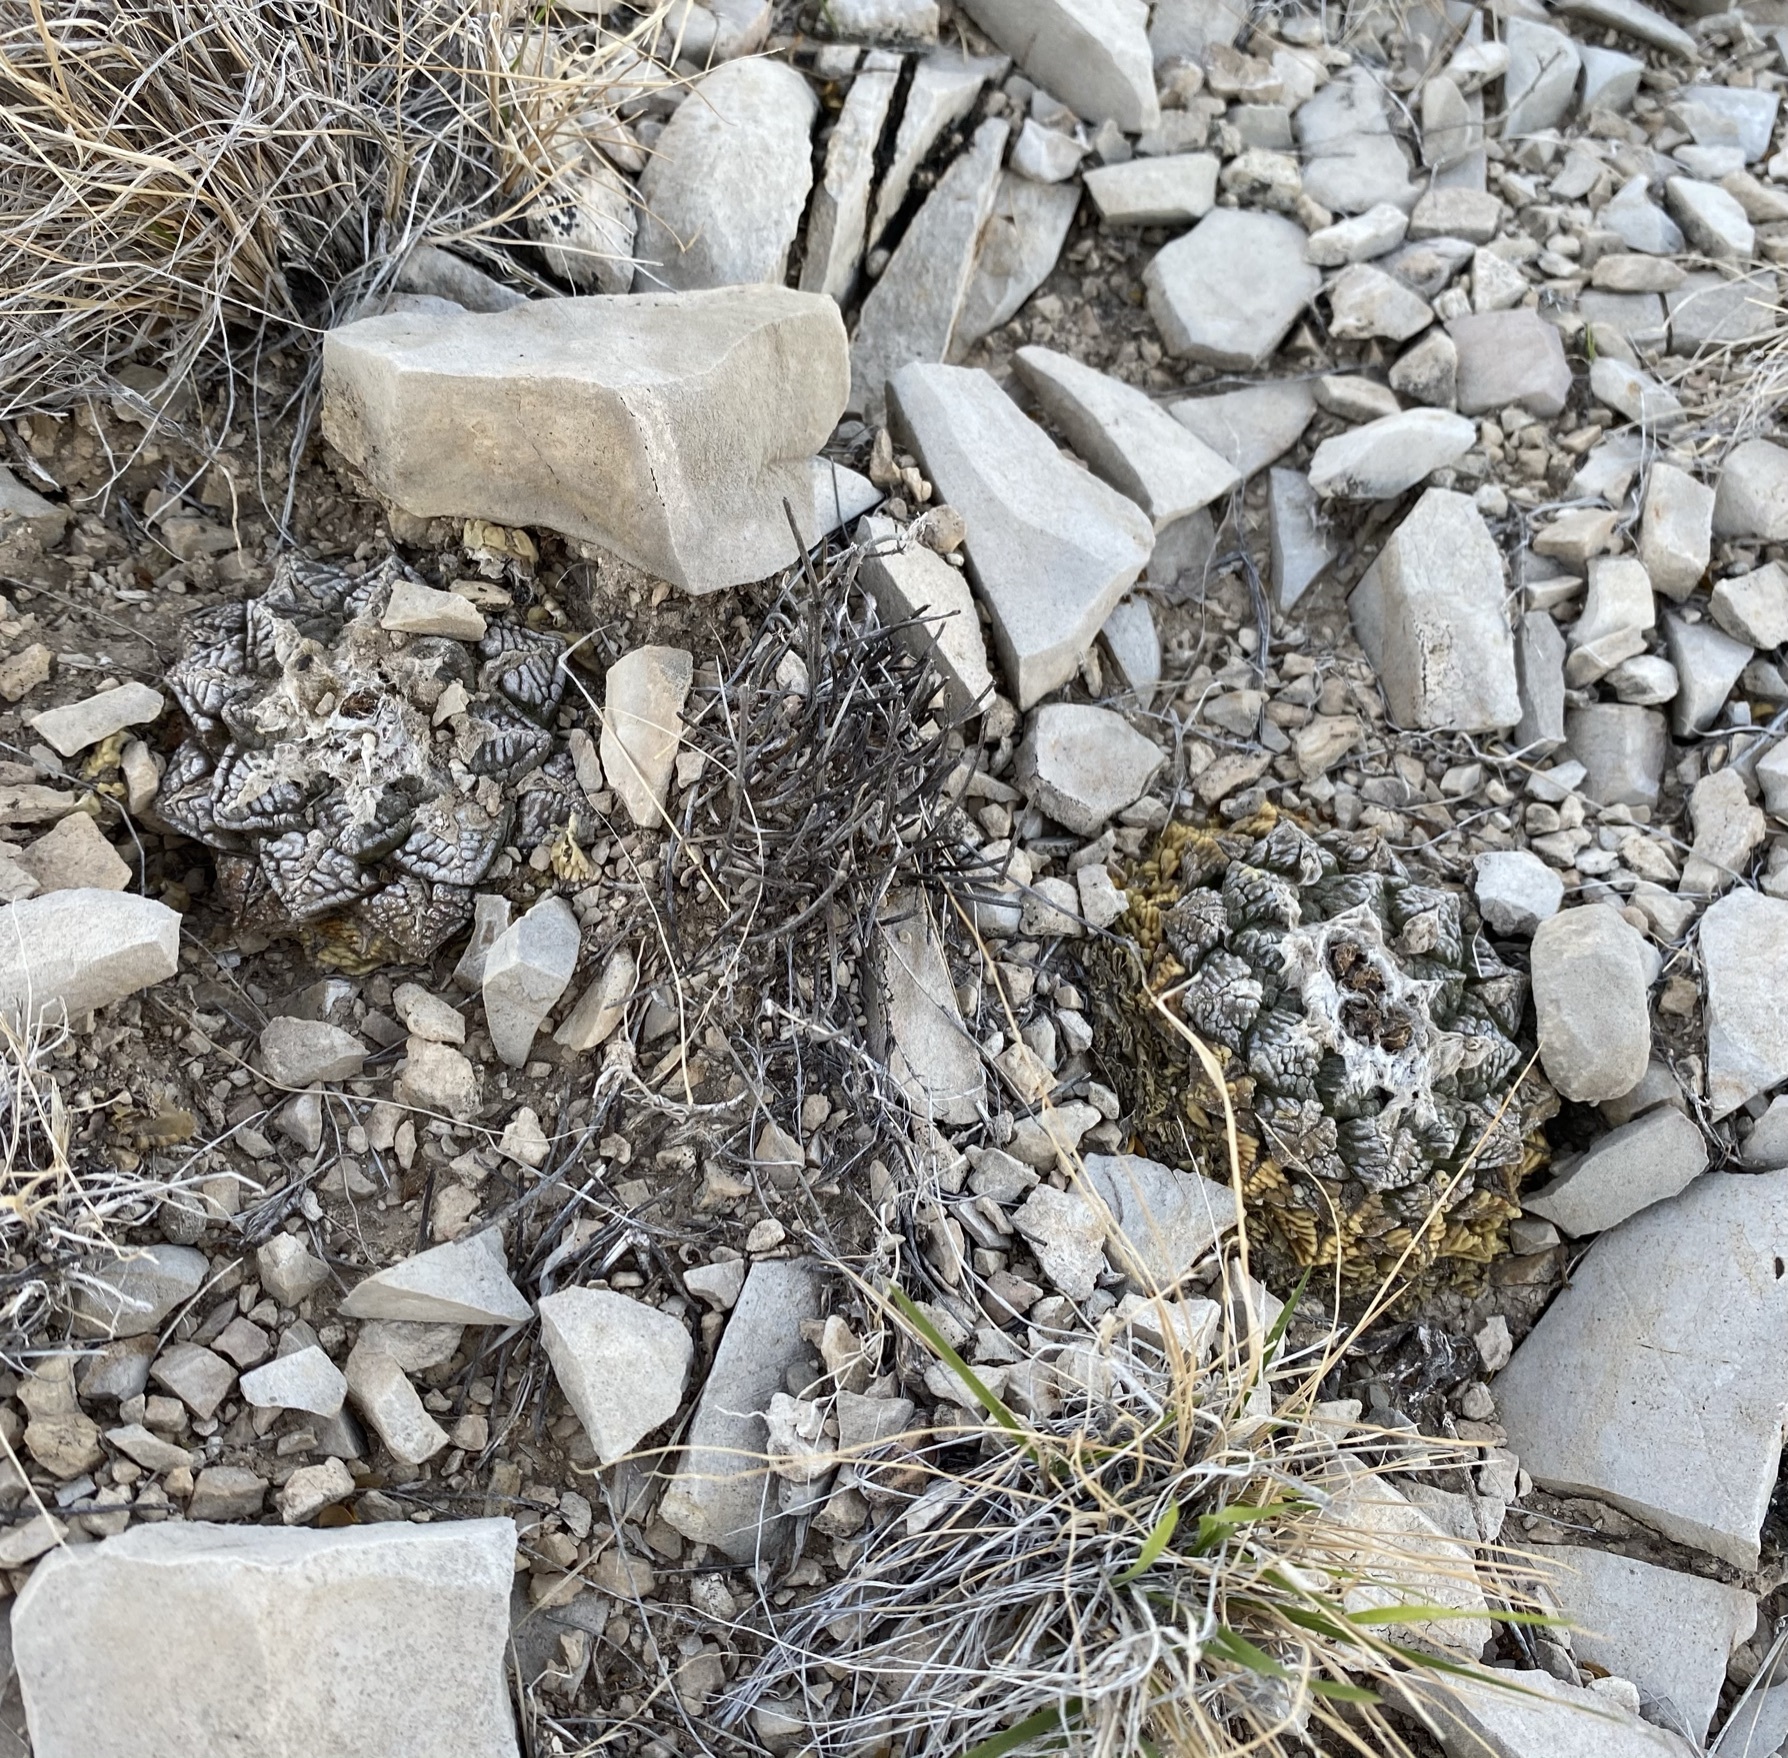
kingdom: Plantae
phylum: Tracheophyta
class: Magnoliopsida
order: Caryophyllales
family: Cactaceae
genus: Ariocarpus
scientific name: Ariocarpus fissuratus
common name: Chautle-living rock
